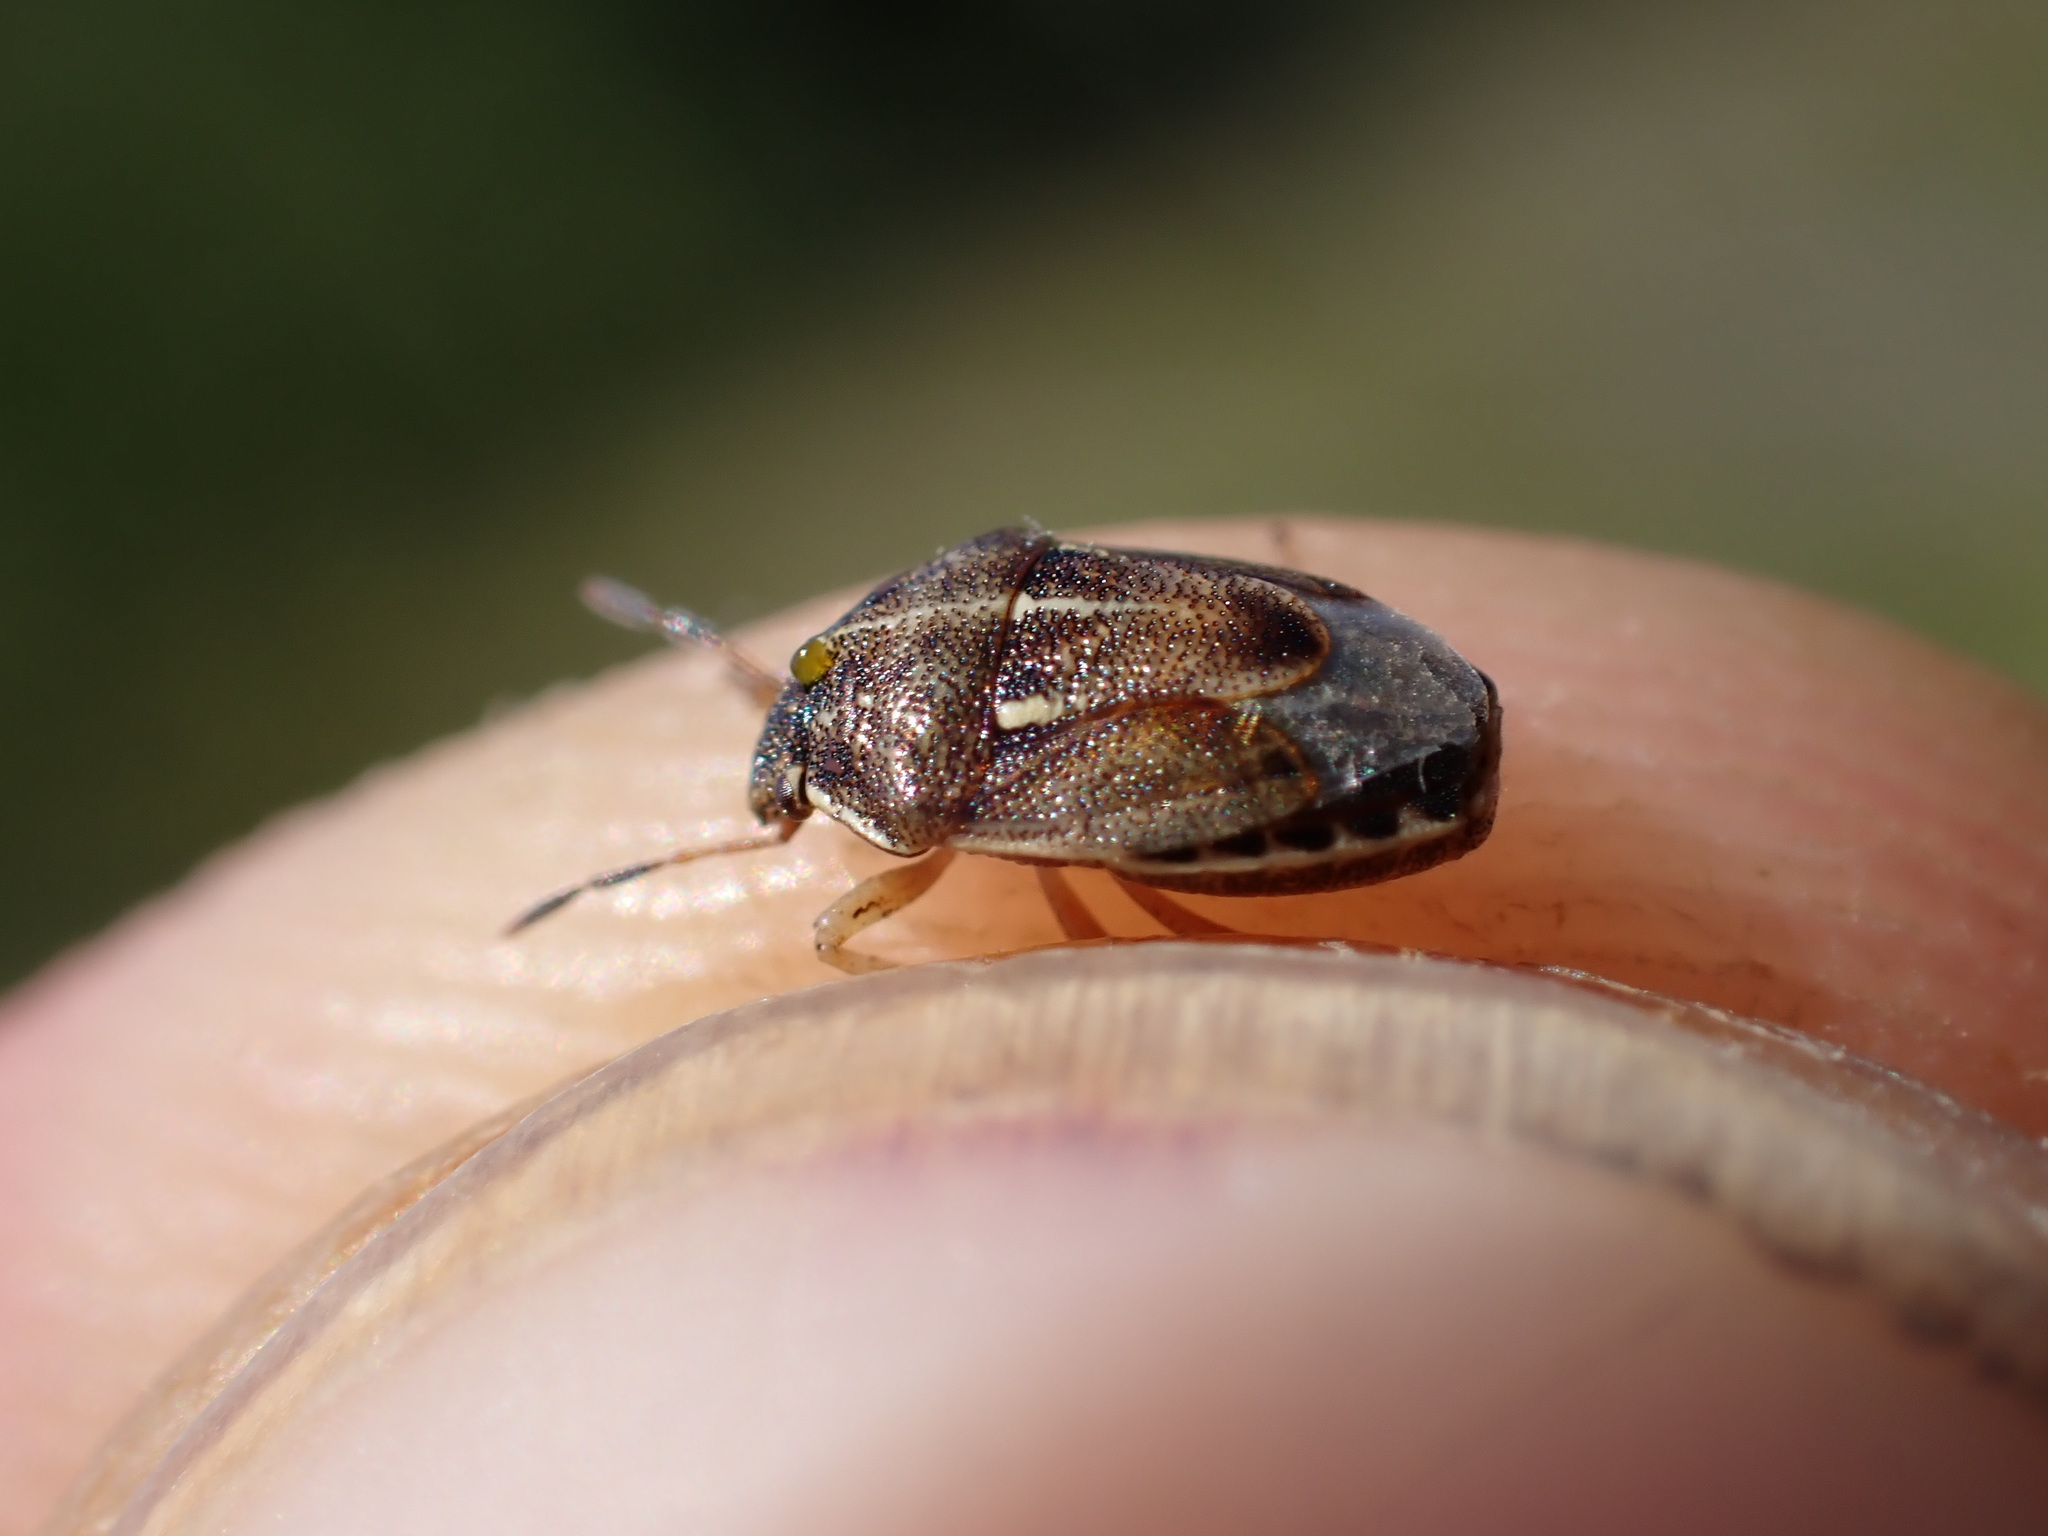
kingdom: Animalia
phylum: Arthropoda
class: Insecta
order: Hemiptera
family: Pentatomidae
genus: Neottiglossa
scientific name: Neottiglossa lineolata
